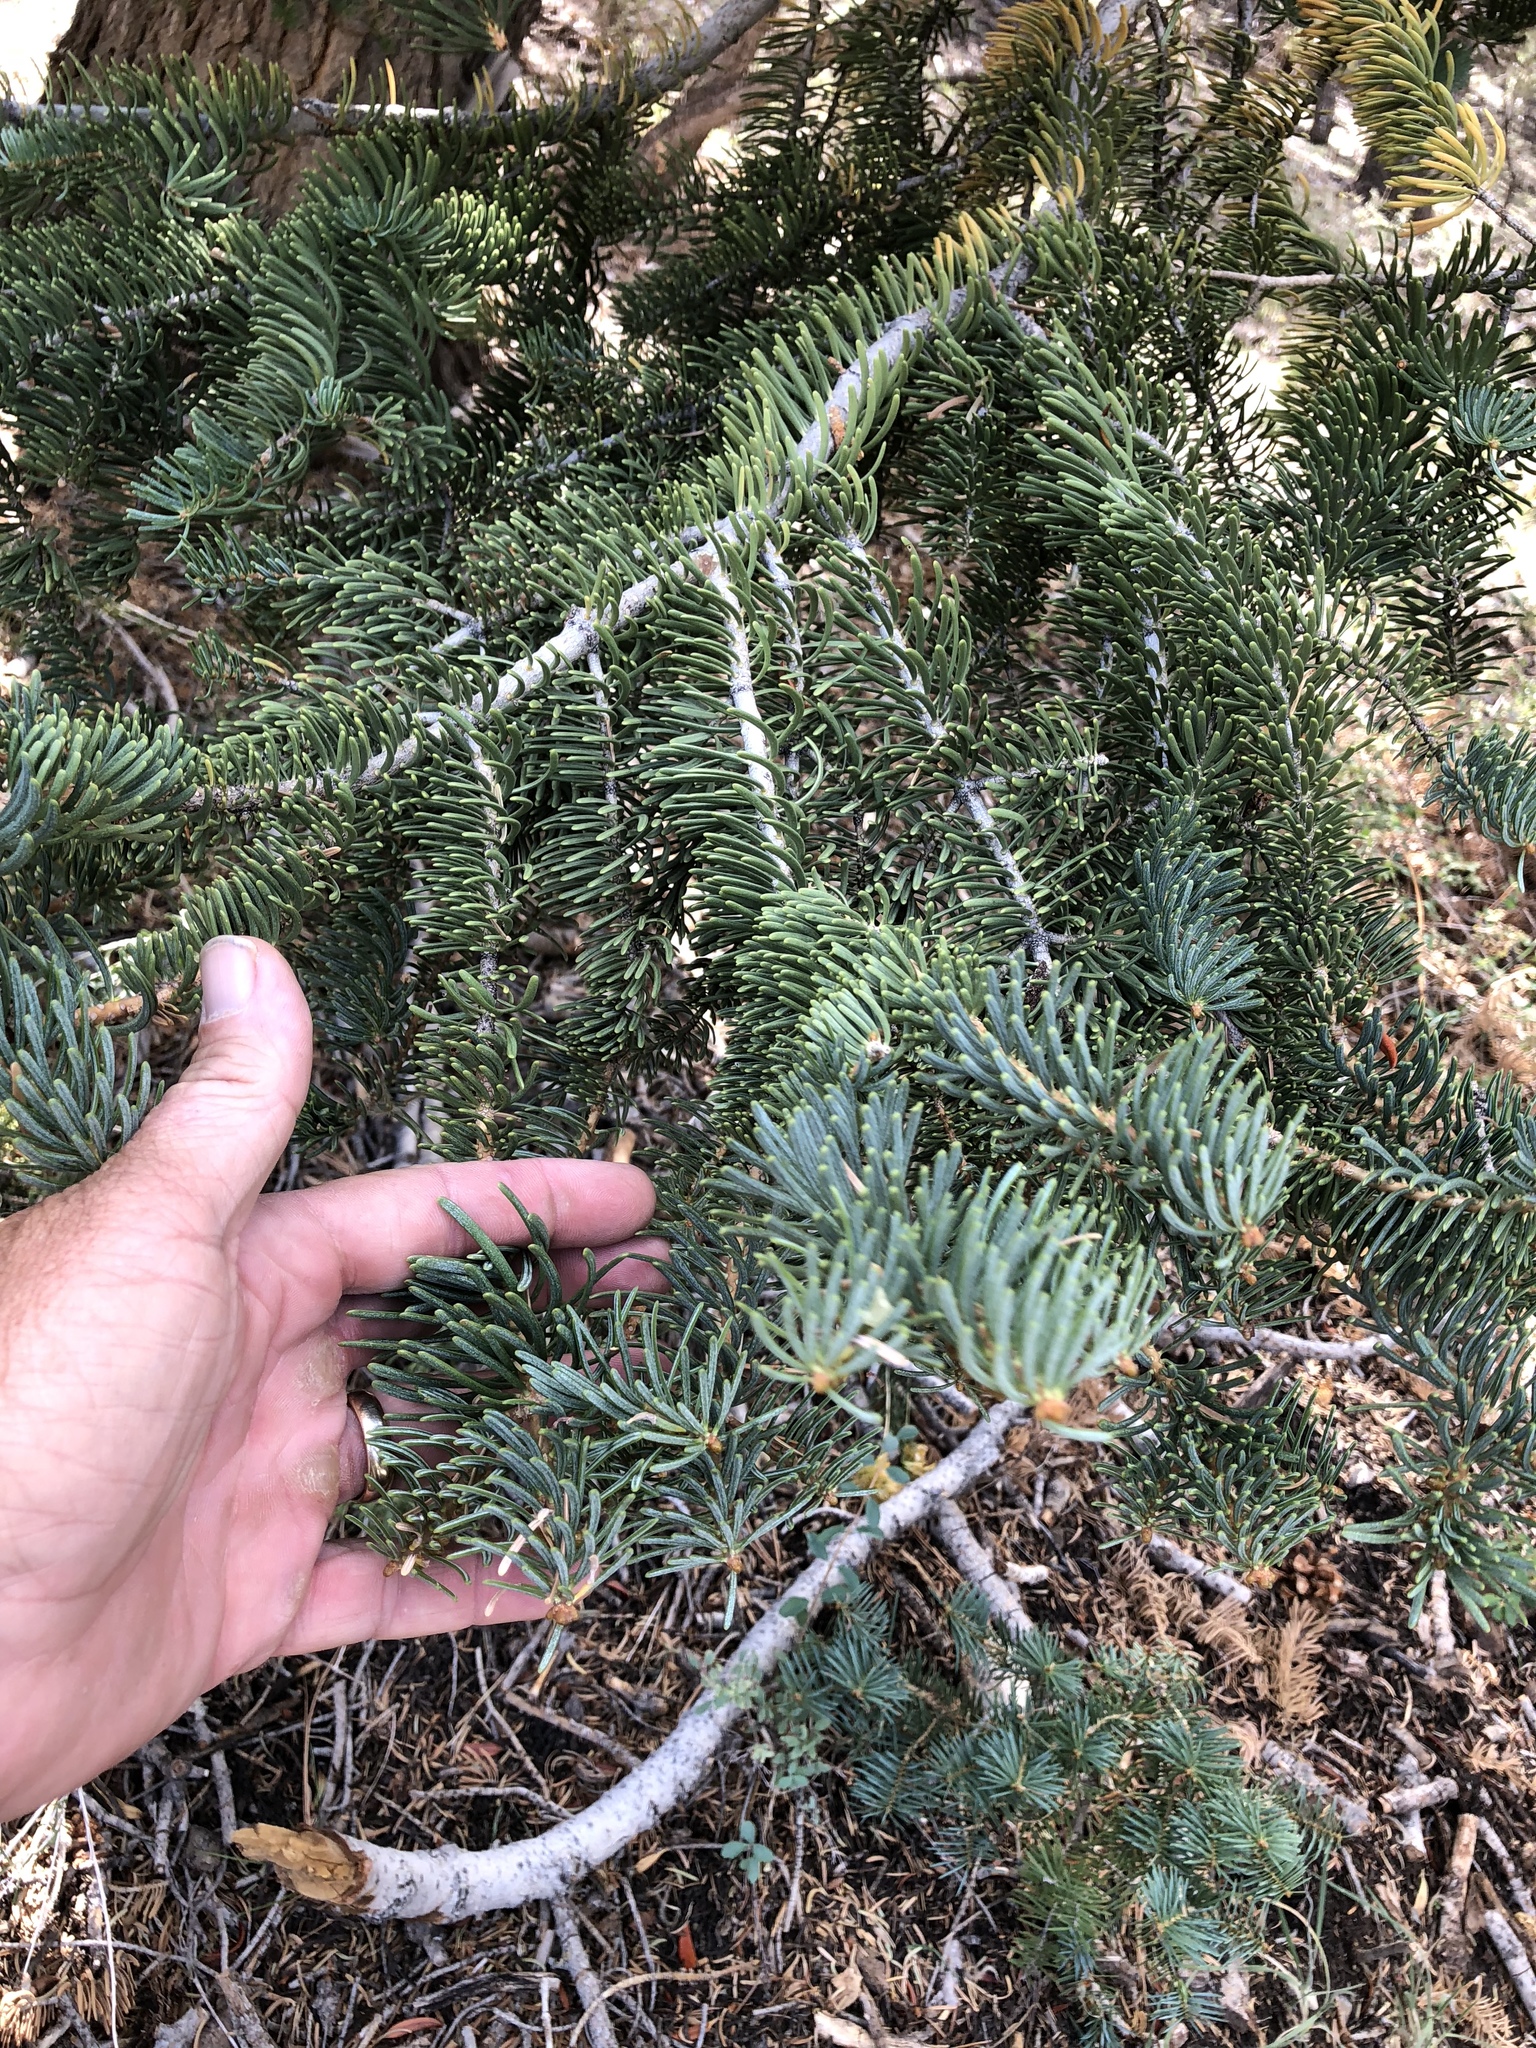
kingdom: Plantae
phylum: Tracheophyta
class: Pinopsida
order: Pinales
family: Pinaceae
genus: Abies
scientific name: Abies concolor
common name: Colorado fir
